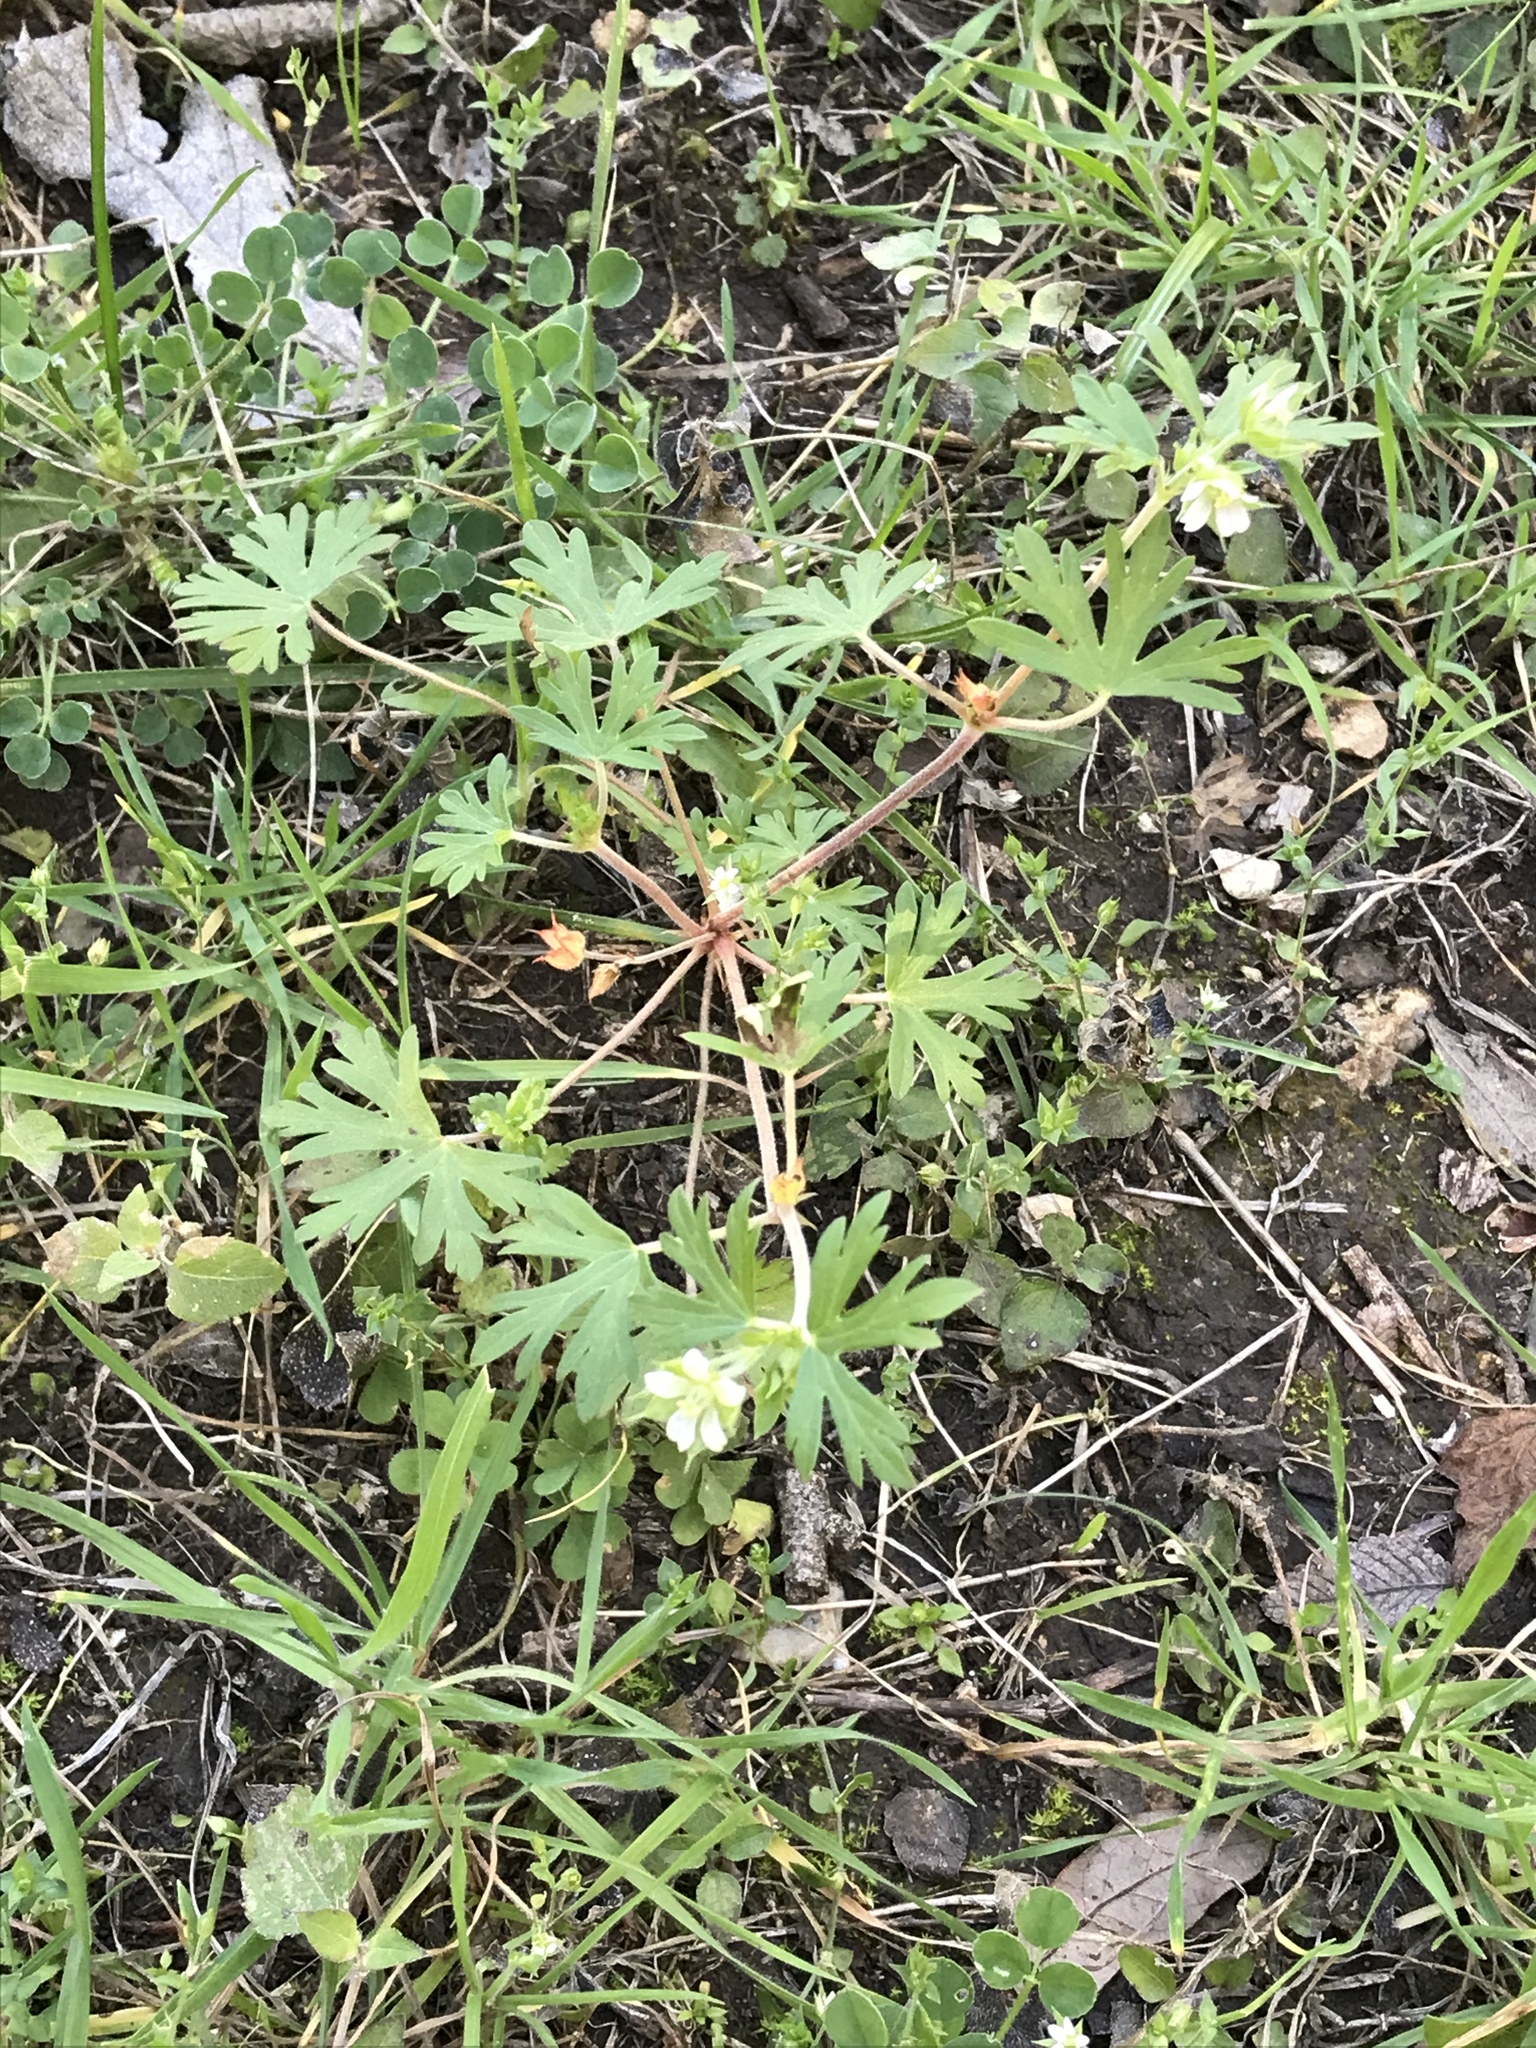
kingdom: Plantae
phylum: Tracheophyta
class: Magnoliopsida
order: Geraniales
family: Geraniaceae
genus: Geranium
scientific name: Geranium carolinianum
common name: Carolina crane's-bill
